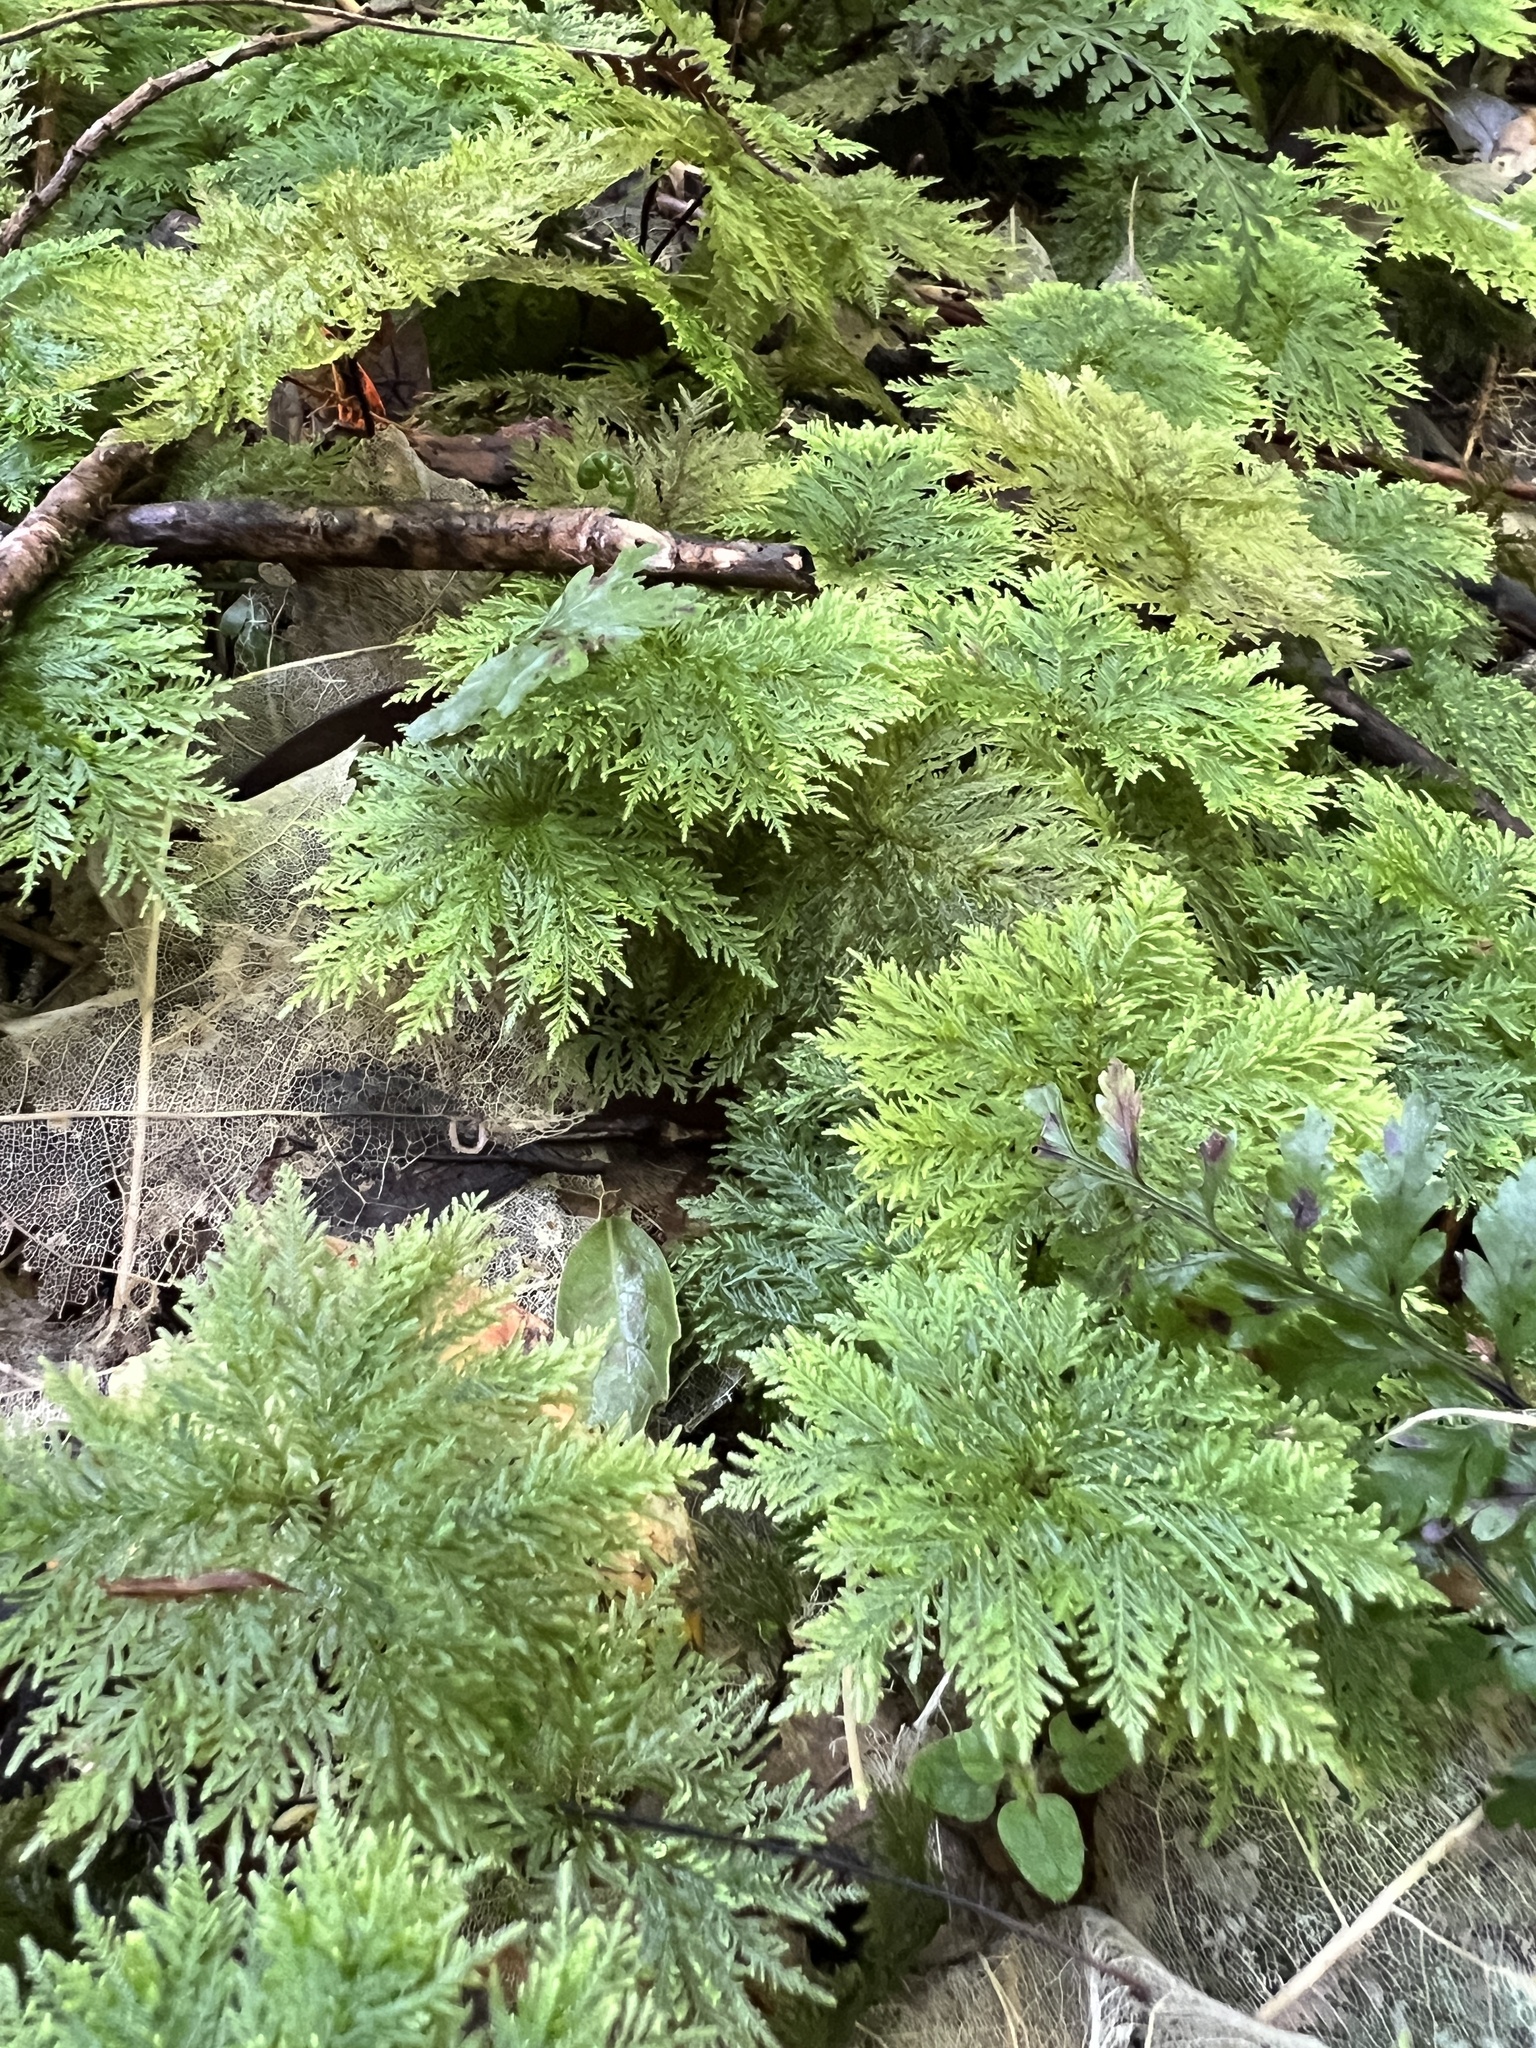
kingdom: Plantae
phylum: Bryophyta
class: Bryopsida
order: Hypopterygiales
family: Hypopterygiaceae
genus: Dendrohypopterygium
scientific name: Dendrohypopterygium filiculiforme
